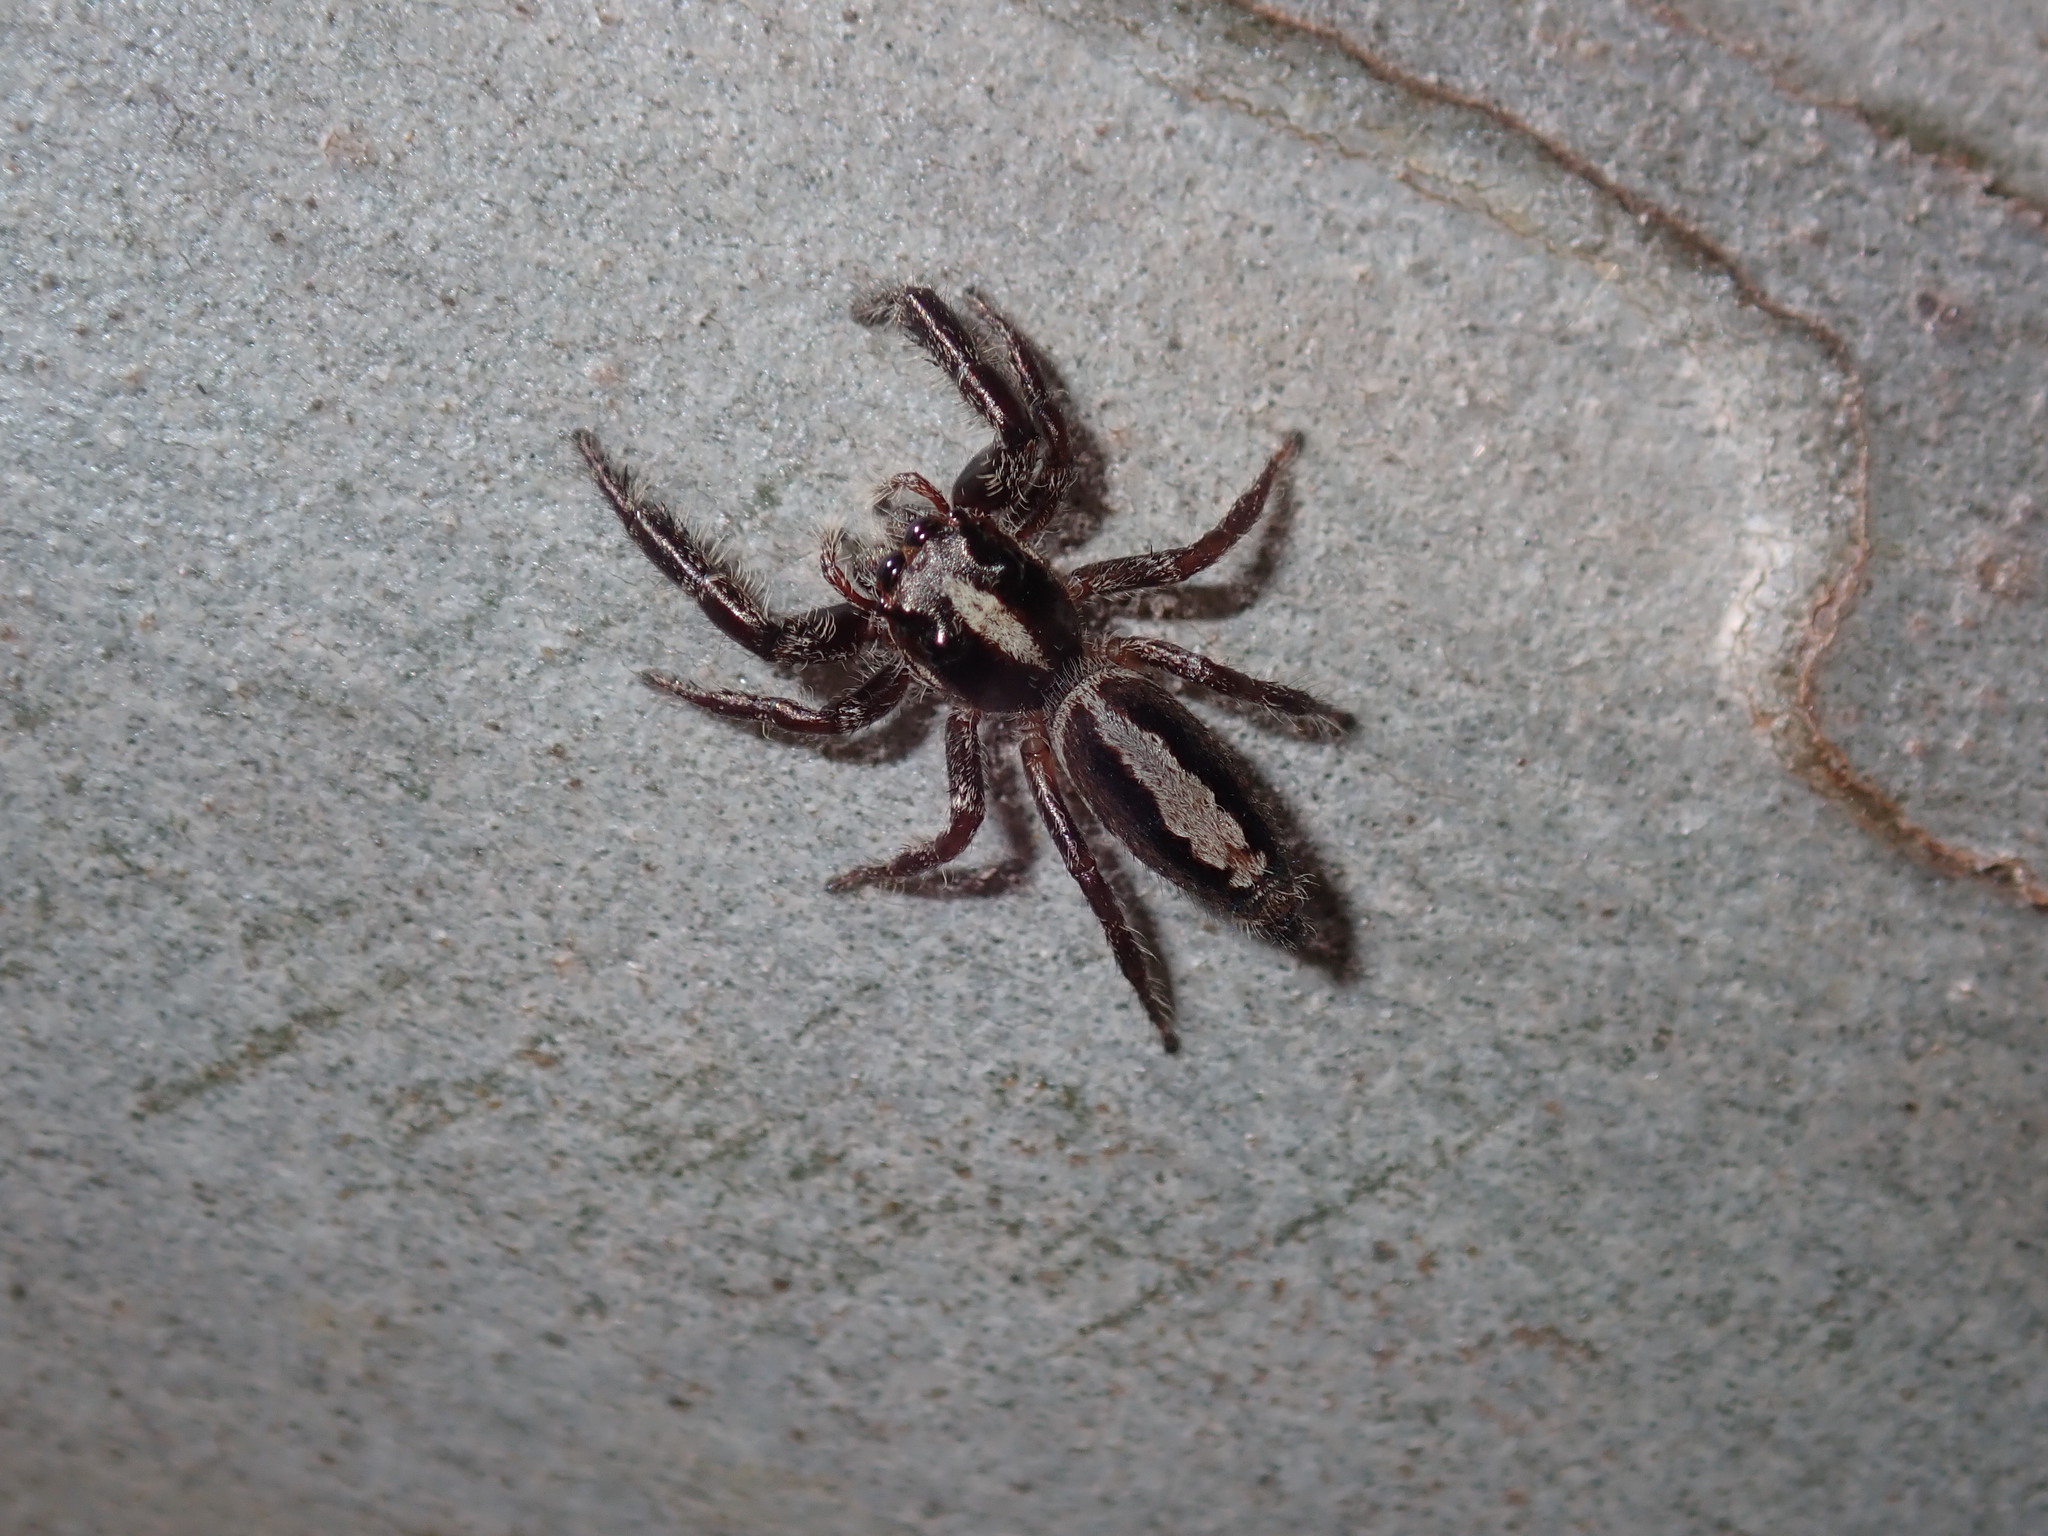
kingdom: Animalia
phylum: Arthropoda
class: Arachnida
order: Araneae
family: Salticidae
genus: Sandalodes
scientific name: Sandalodes bipenicillatus
